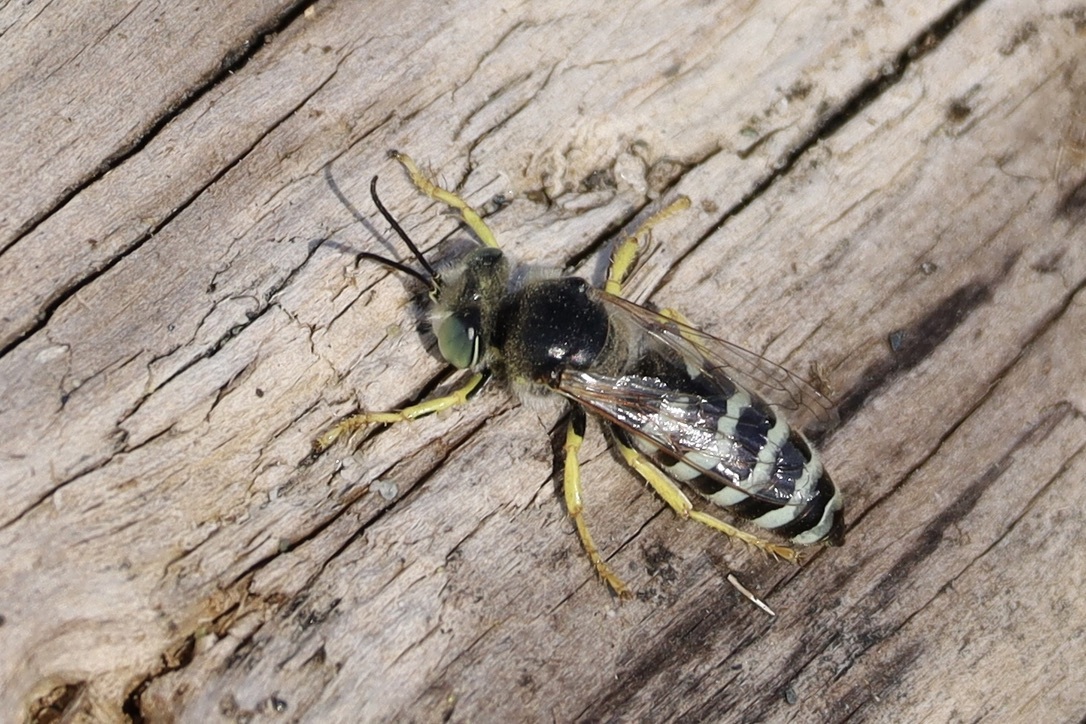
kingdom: Animalia
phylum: Arthropoda
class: Insecta
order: Hymenoptera
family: Crabronidae
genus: Bembix
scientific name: Bembix americana
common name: American sand wasp
